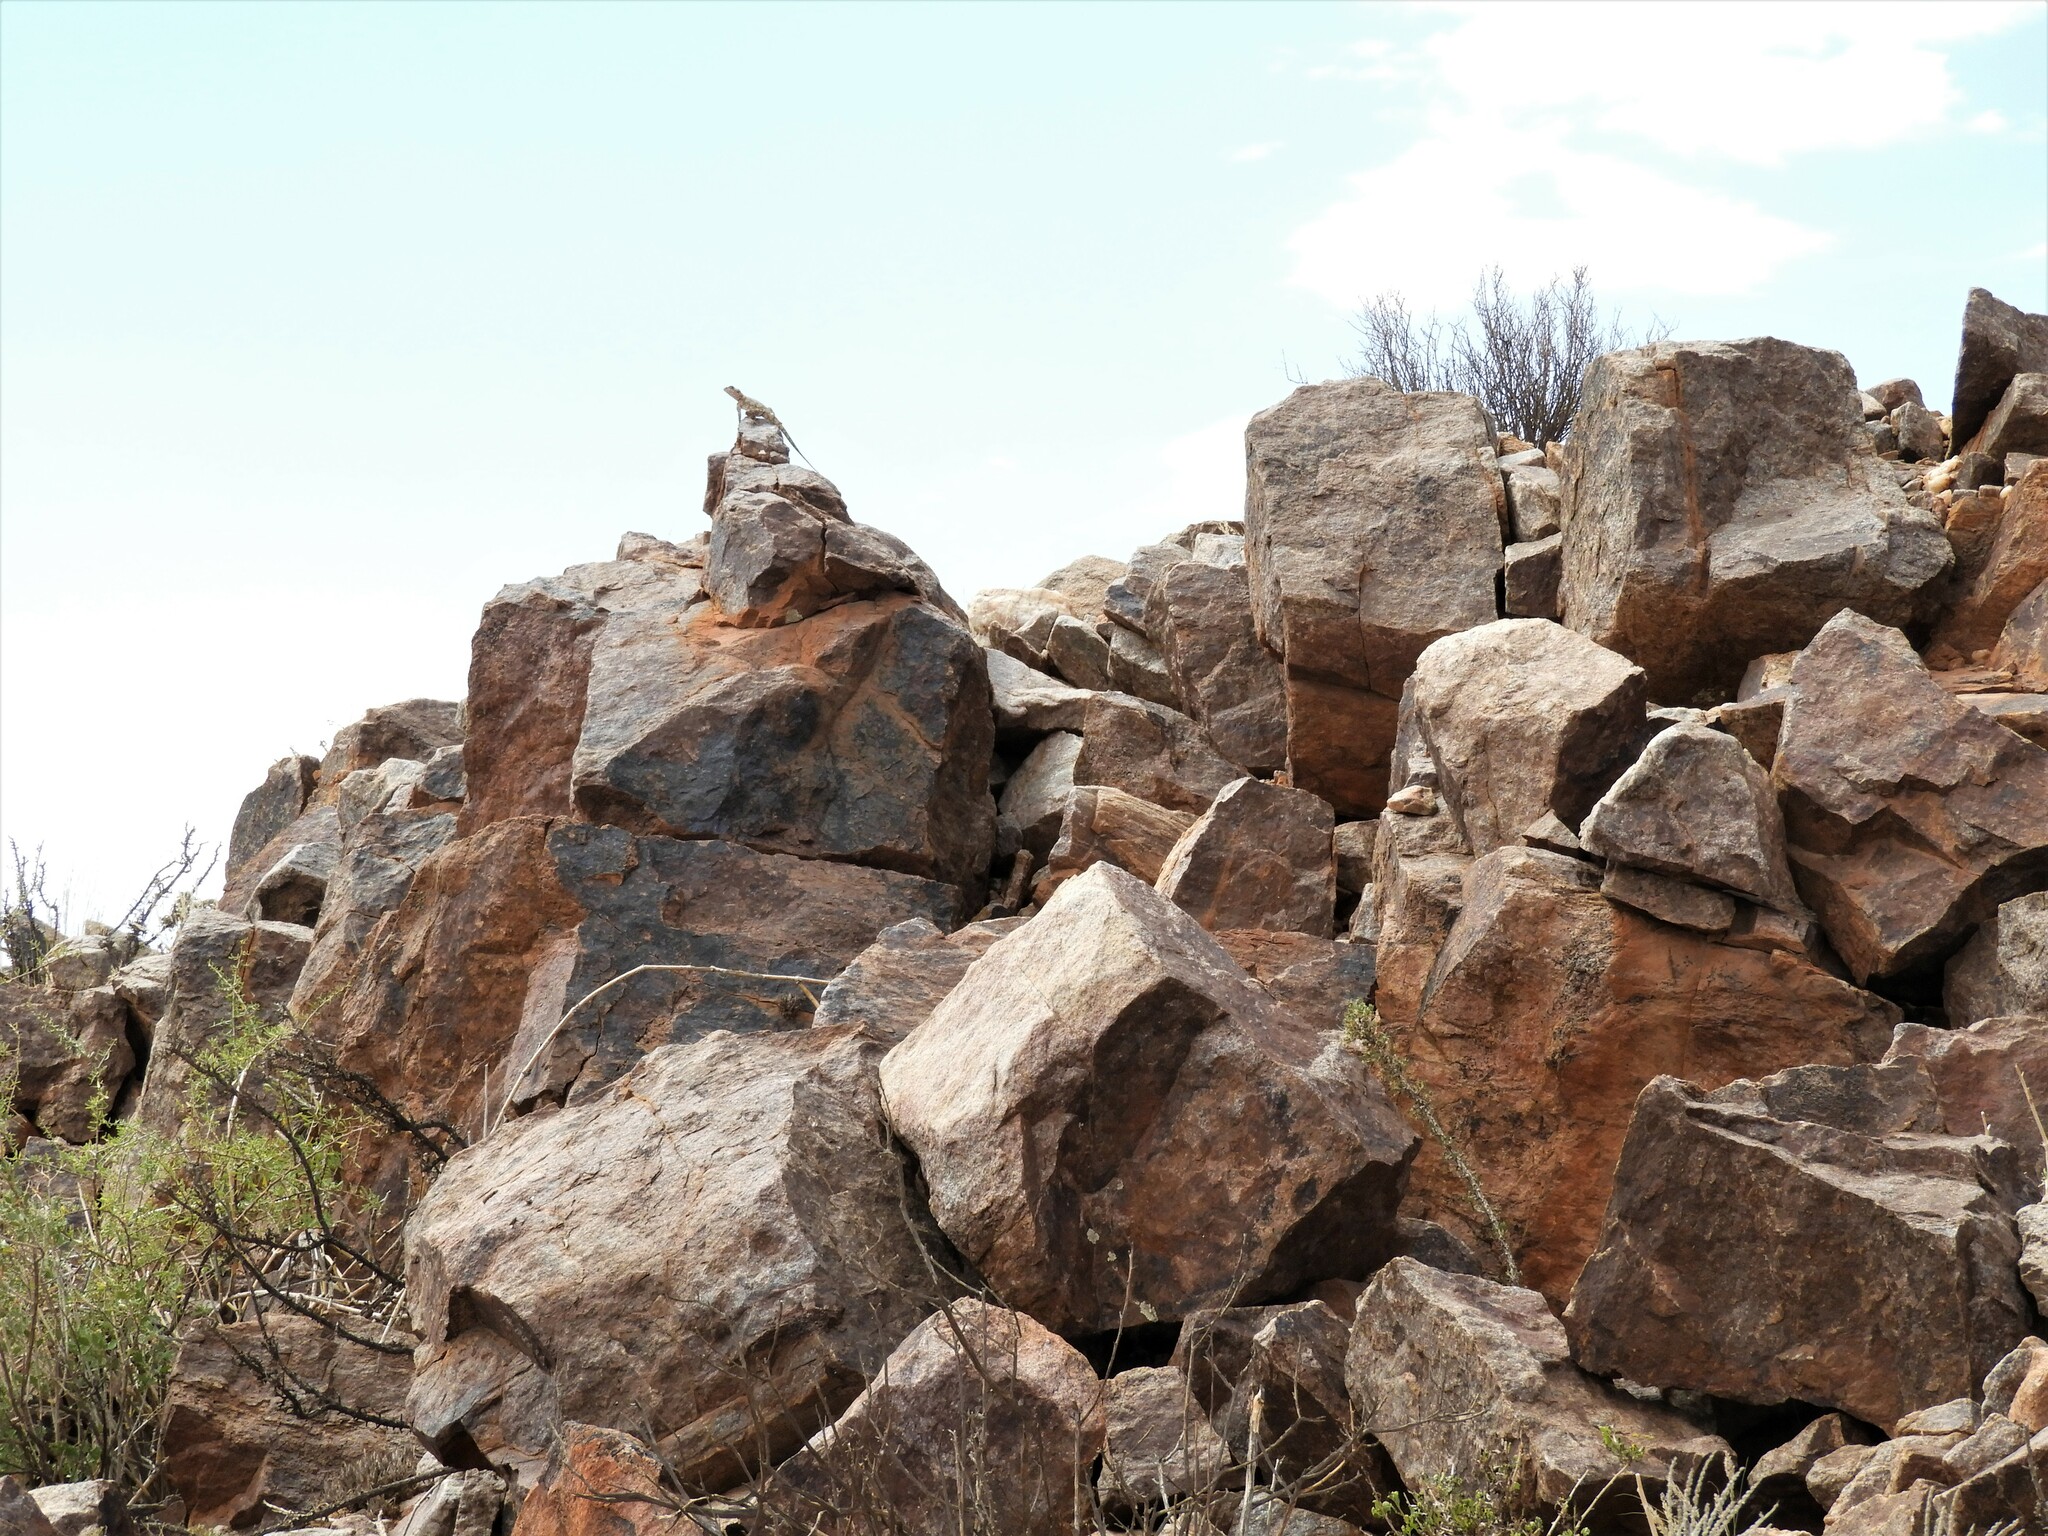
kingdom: Animalia
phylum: Chordata
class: Squamata
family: Agamidae
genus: Agama
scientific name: Agama atra
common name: Southern african rock agama
